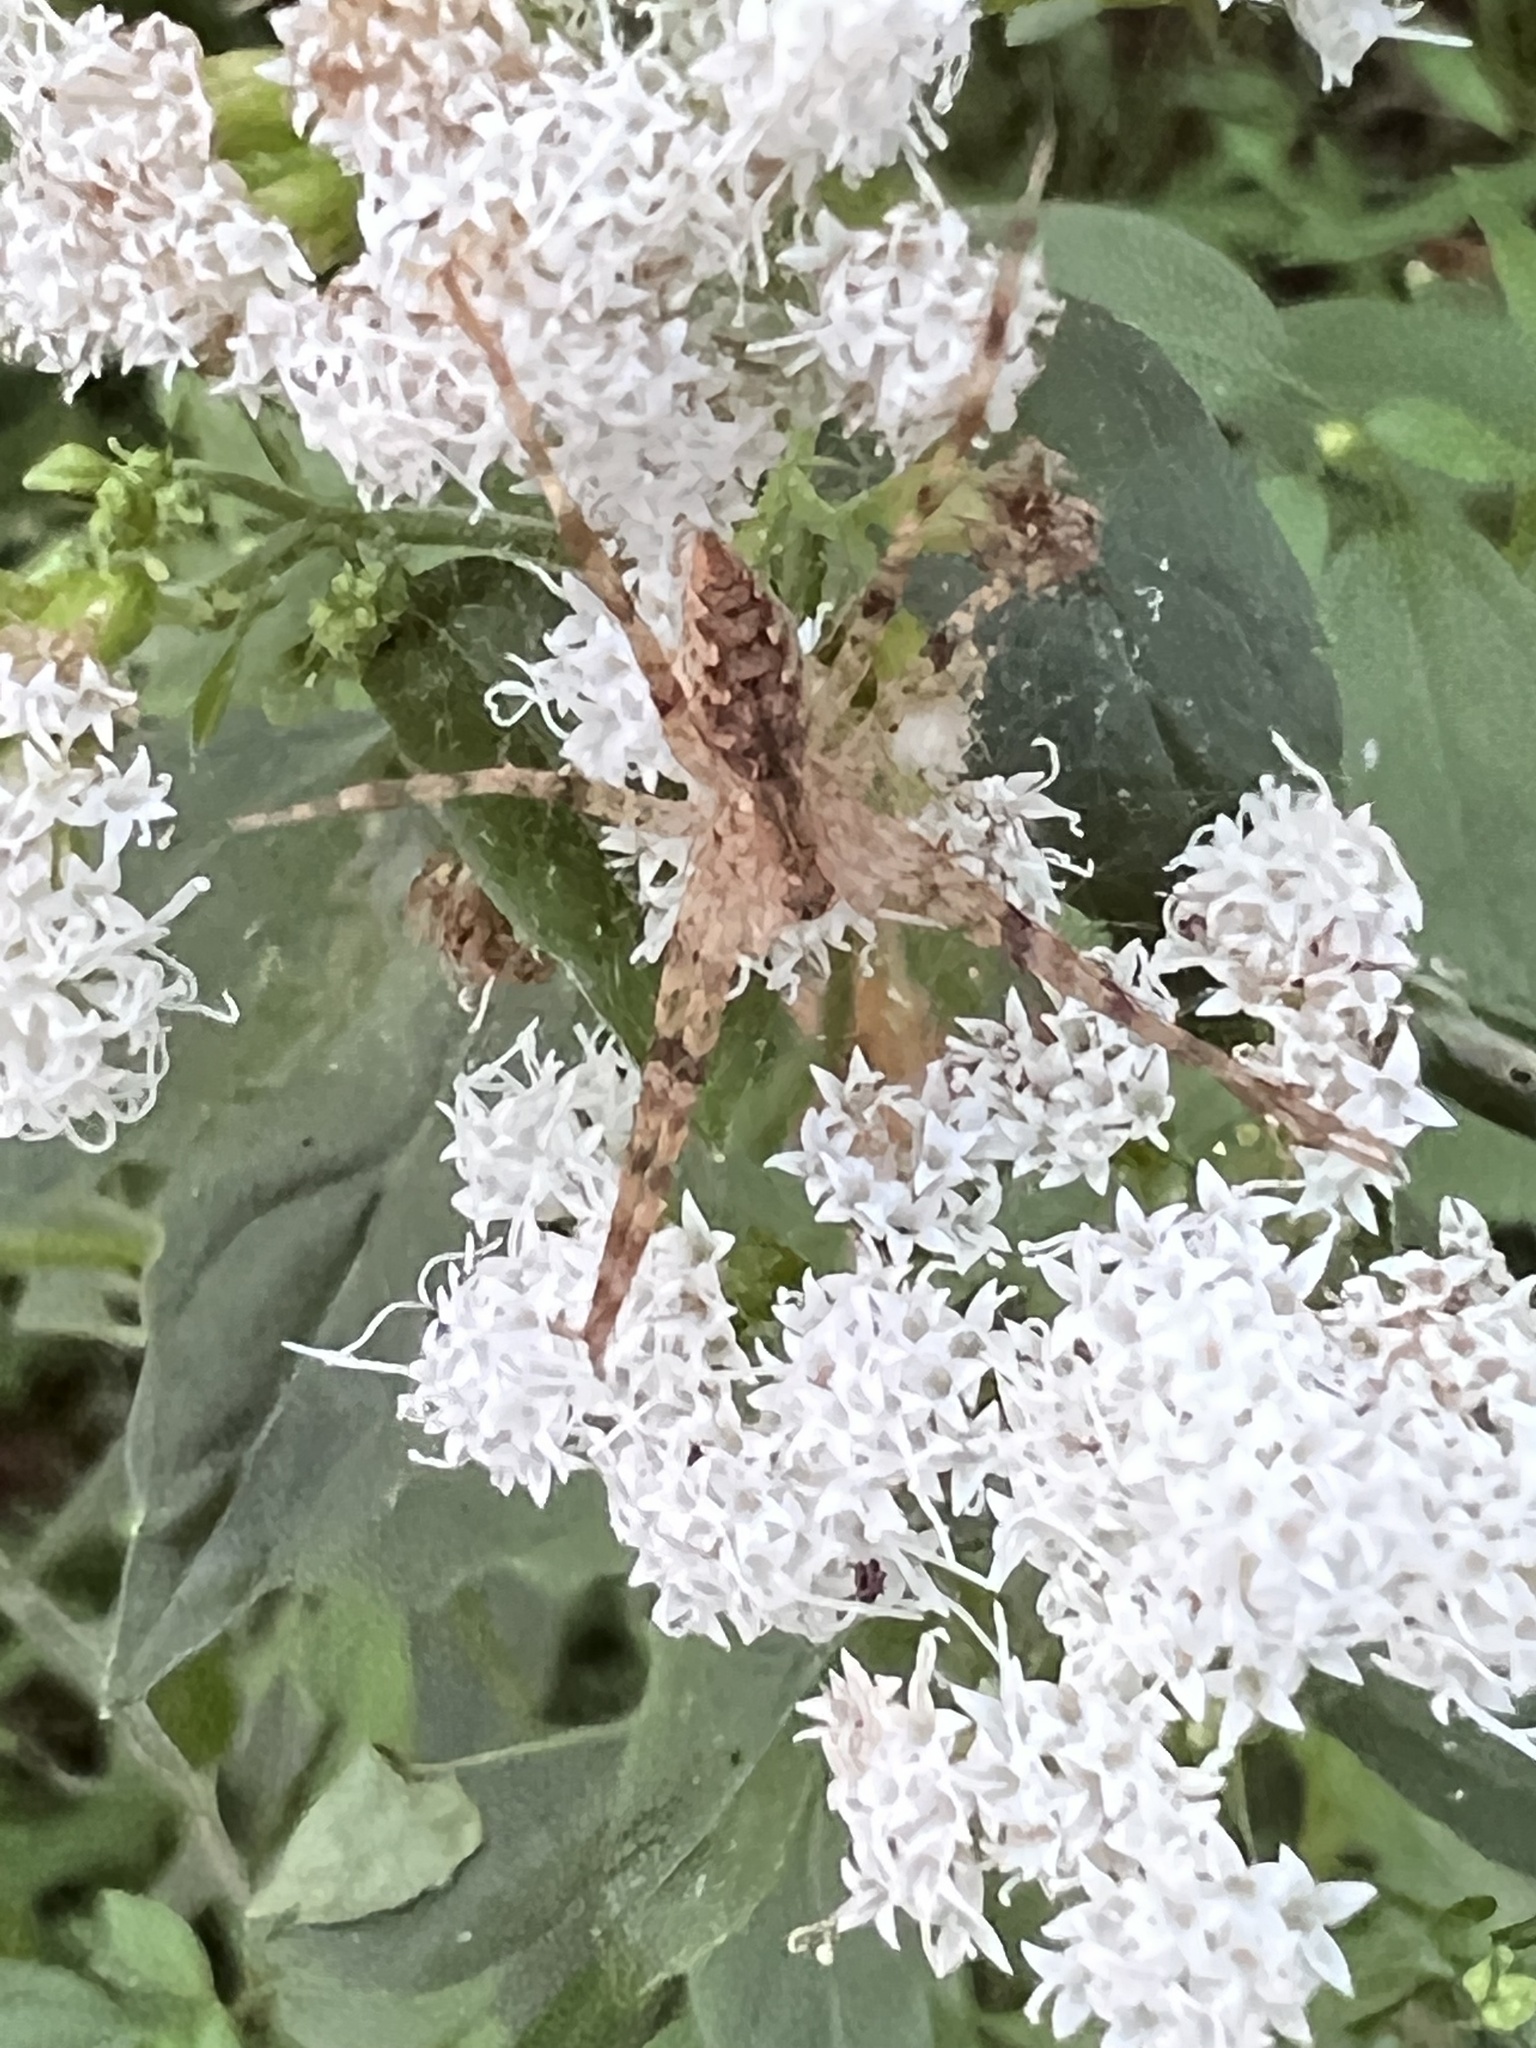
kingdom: Animalia
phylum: Arthropoda
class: Arachnida
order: Araneae
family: Pisauridae
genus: Pisaurina
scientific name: Pisaurina mira
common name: American nursery web spider
